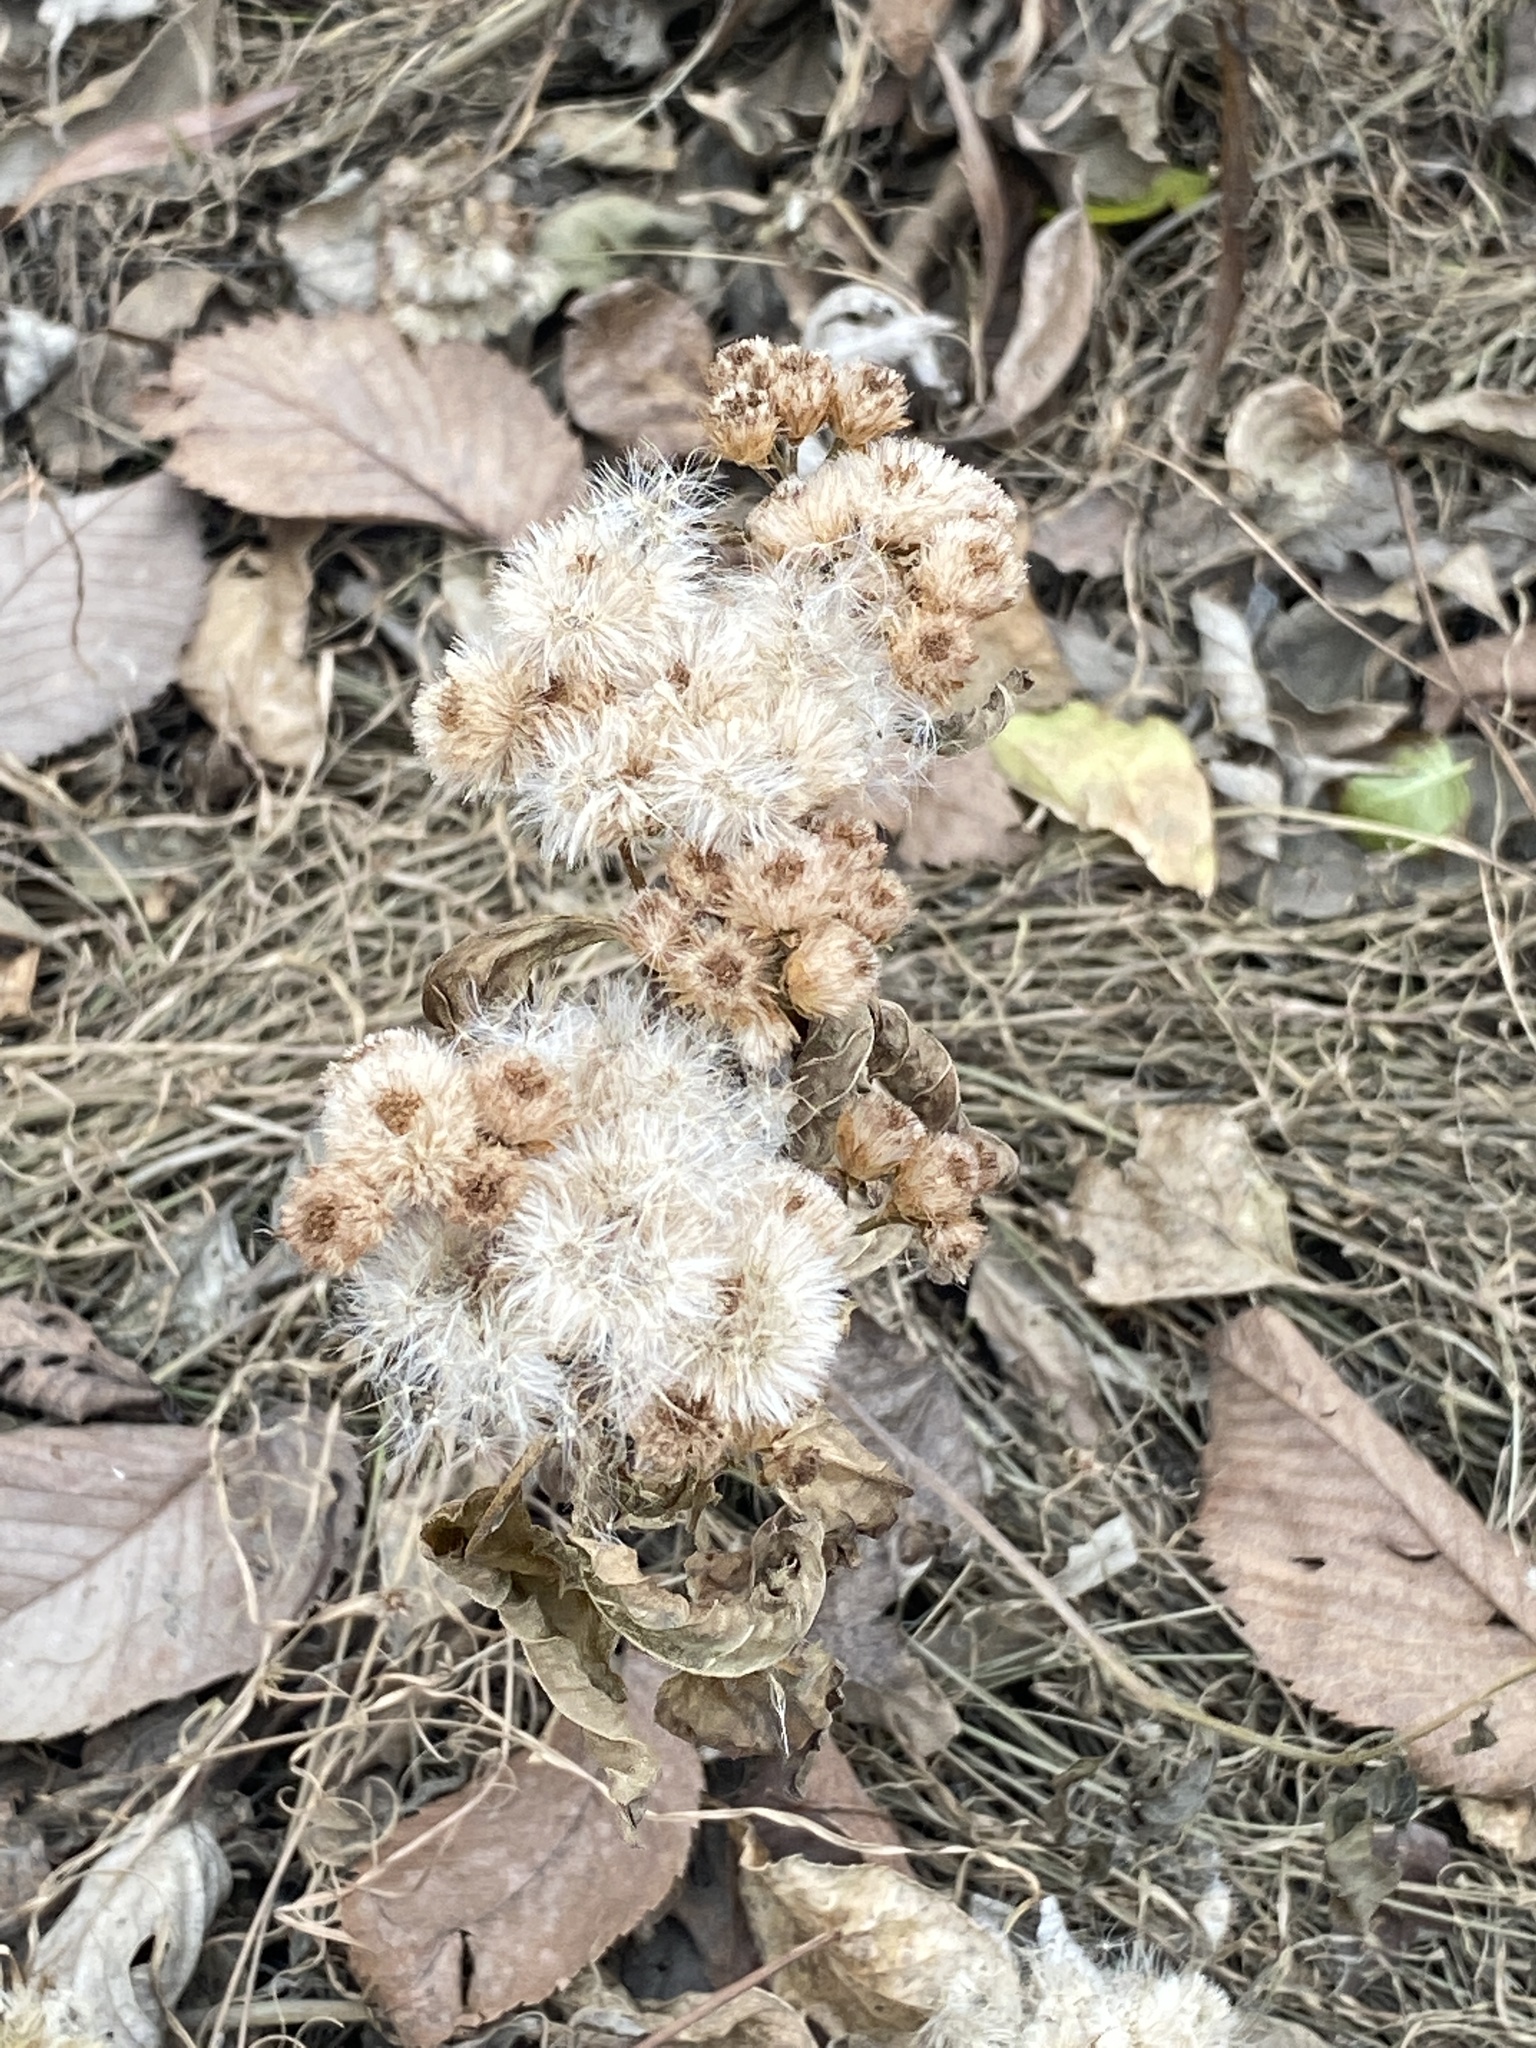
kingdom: Plantae
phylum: Tracheophyta
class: Magnoliopsida
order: Asterales
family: Asteraceae
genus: Pluchea
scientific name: Pluchea odorata
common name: Saltmarsh fleabane
